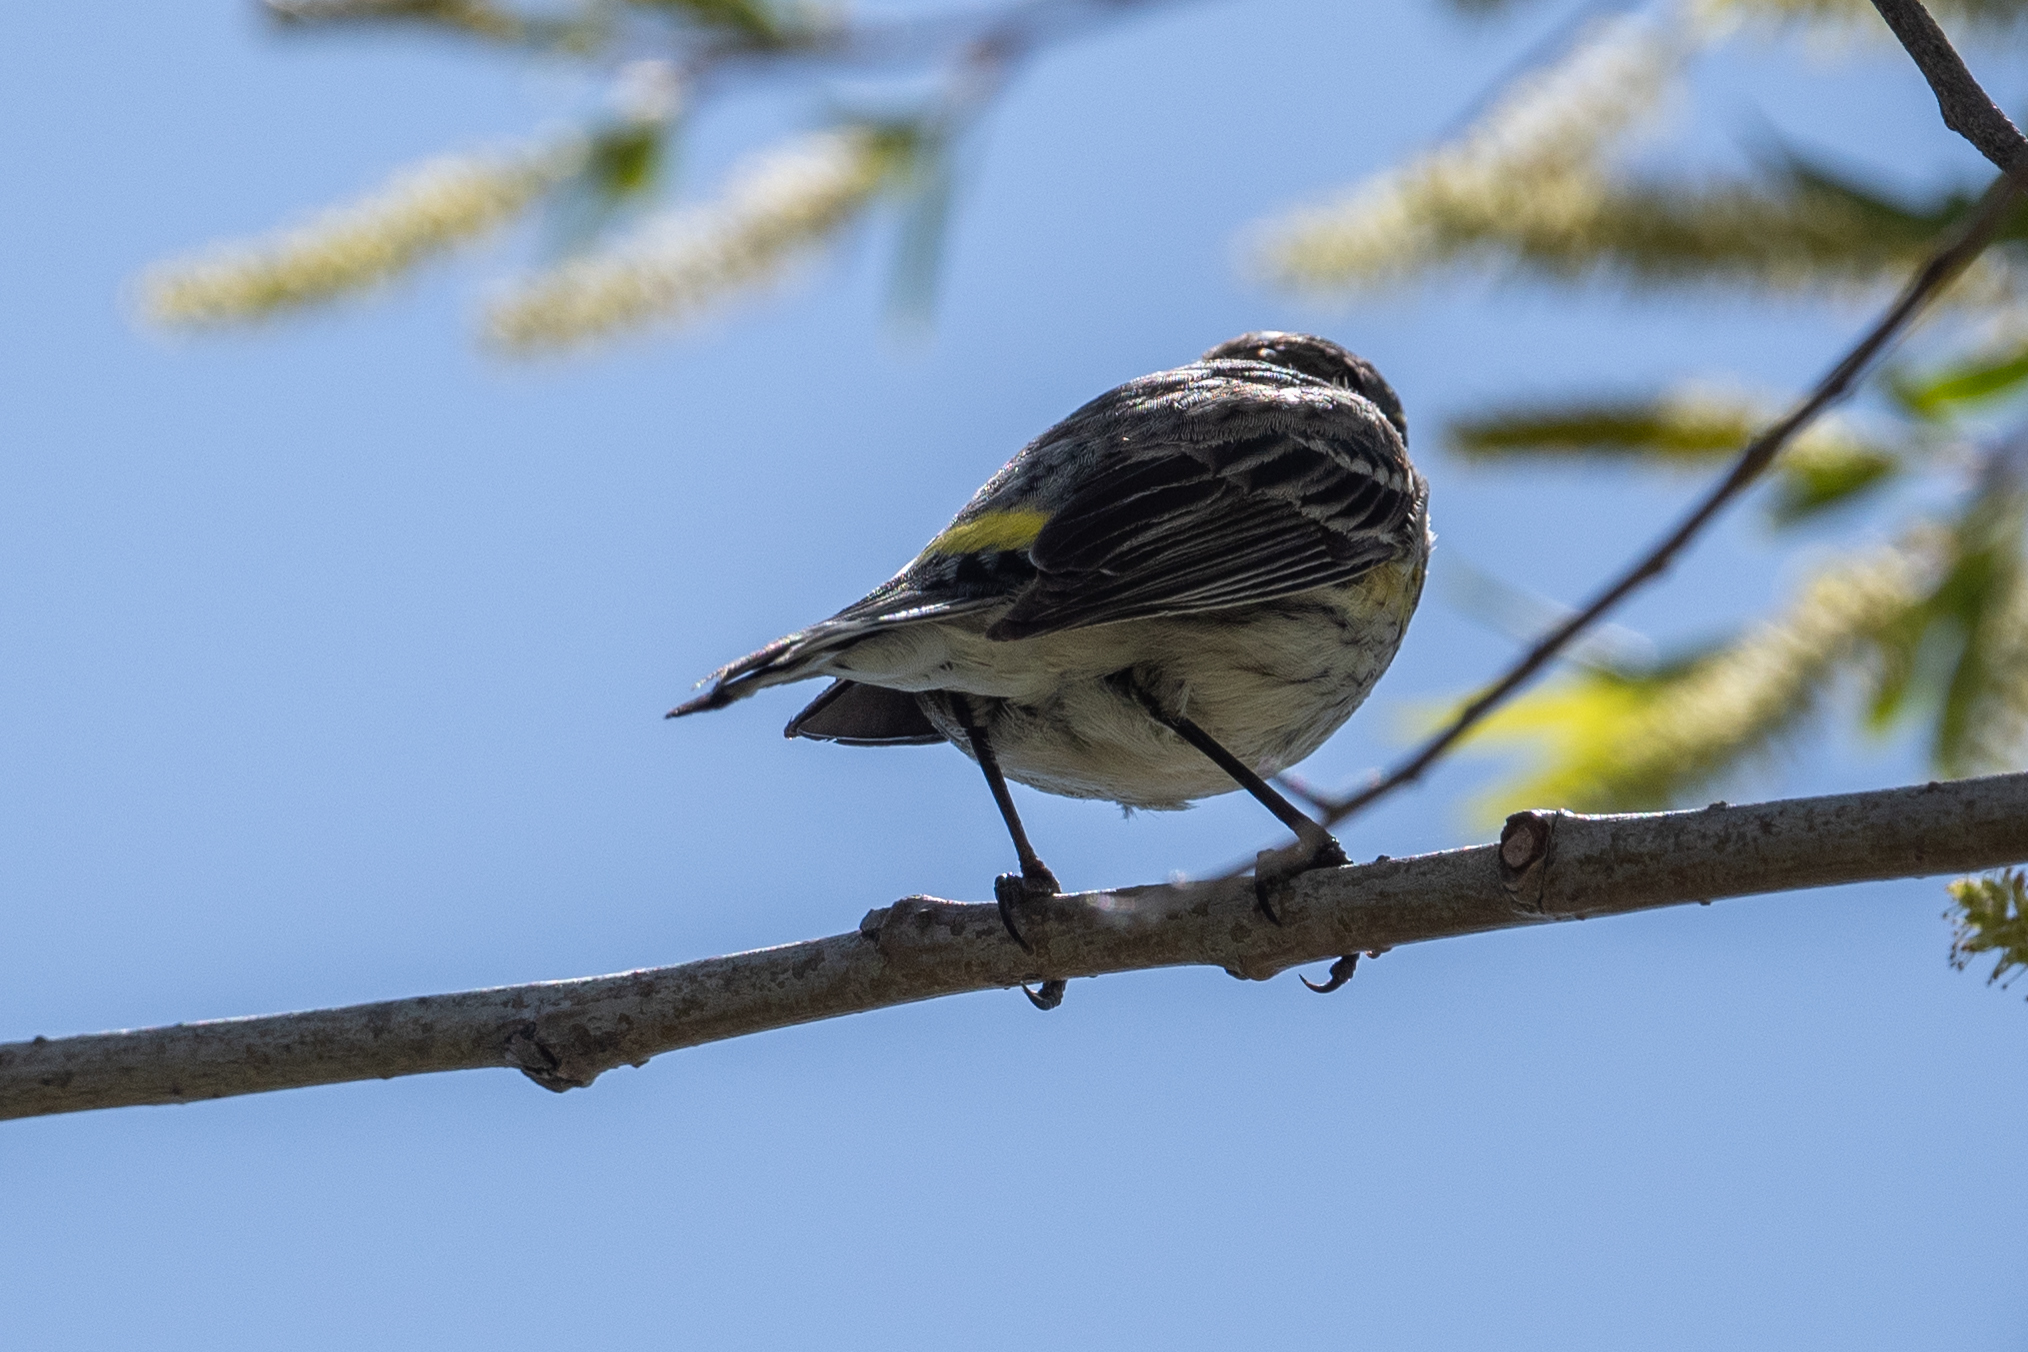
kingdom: Animalia
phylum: Chordata
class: Aves
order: Passeriformes
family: Parulidae
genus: Setophaga
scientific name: Setophaga coronata
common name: Myrtle warbler
